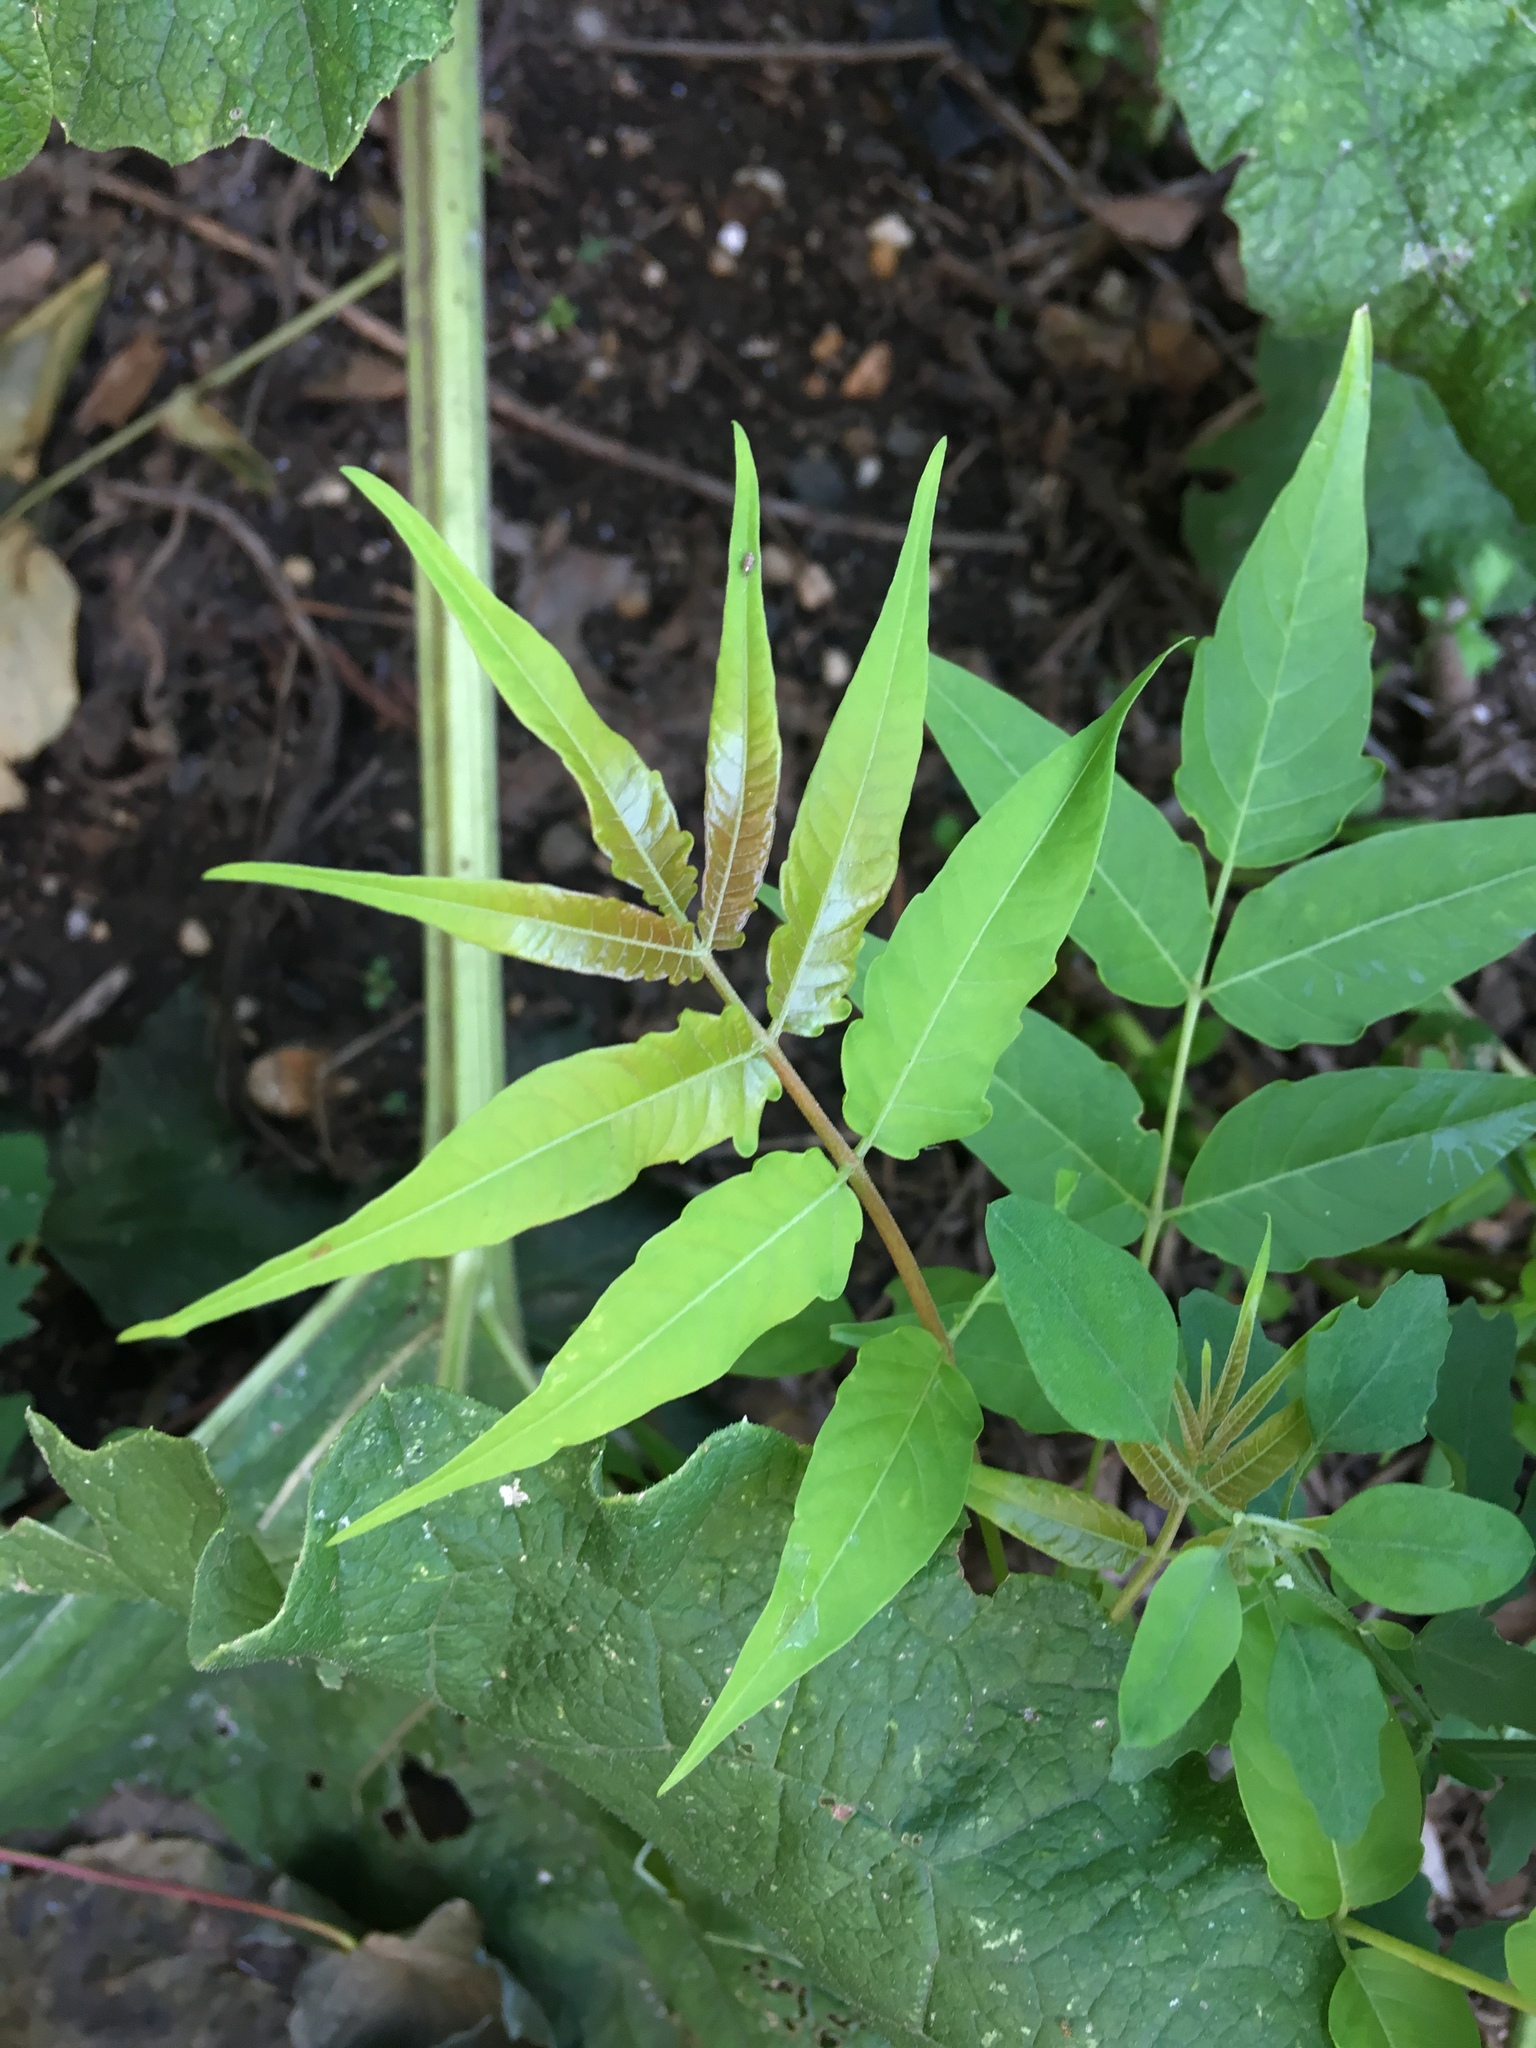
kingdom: Plantae
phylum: Tracheophyta
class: Magnoliopsida
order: Sapindales
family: Simaroubaceae
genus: Ailanthus
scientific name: Ailanthus altissima
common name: Tree-of-heaven
